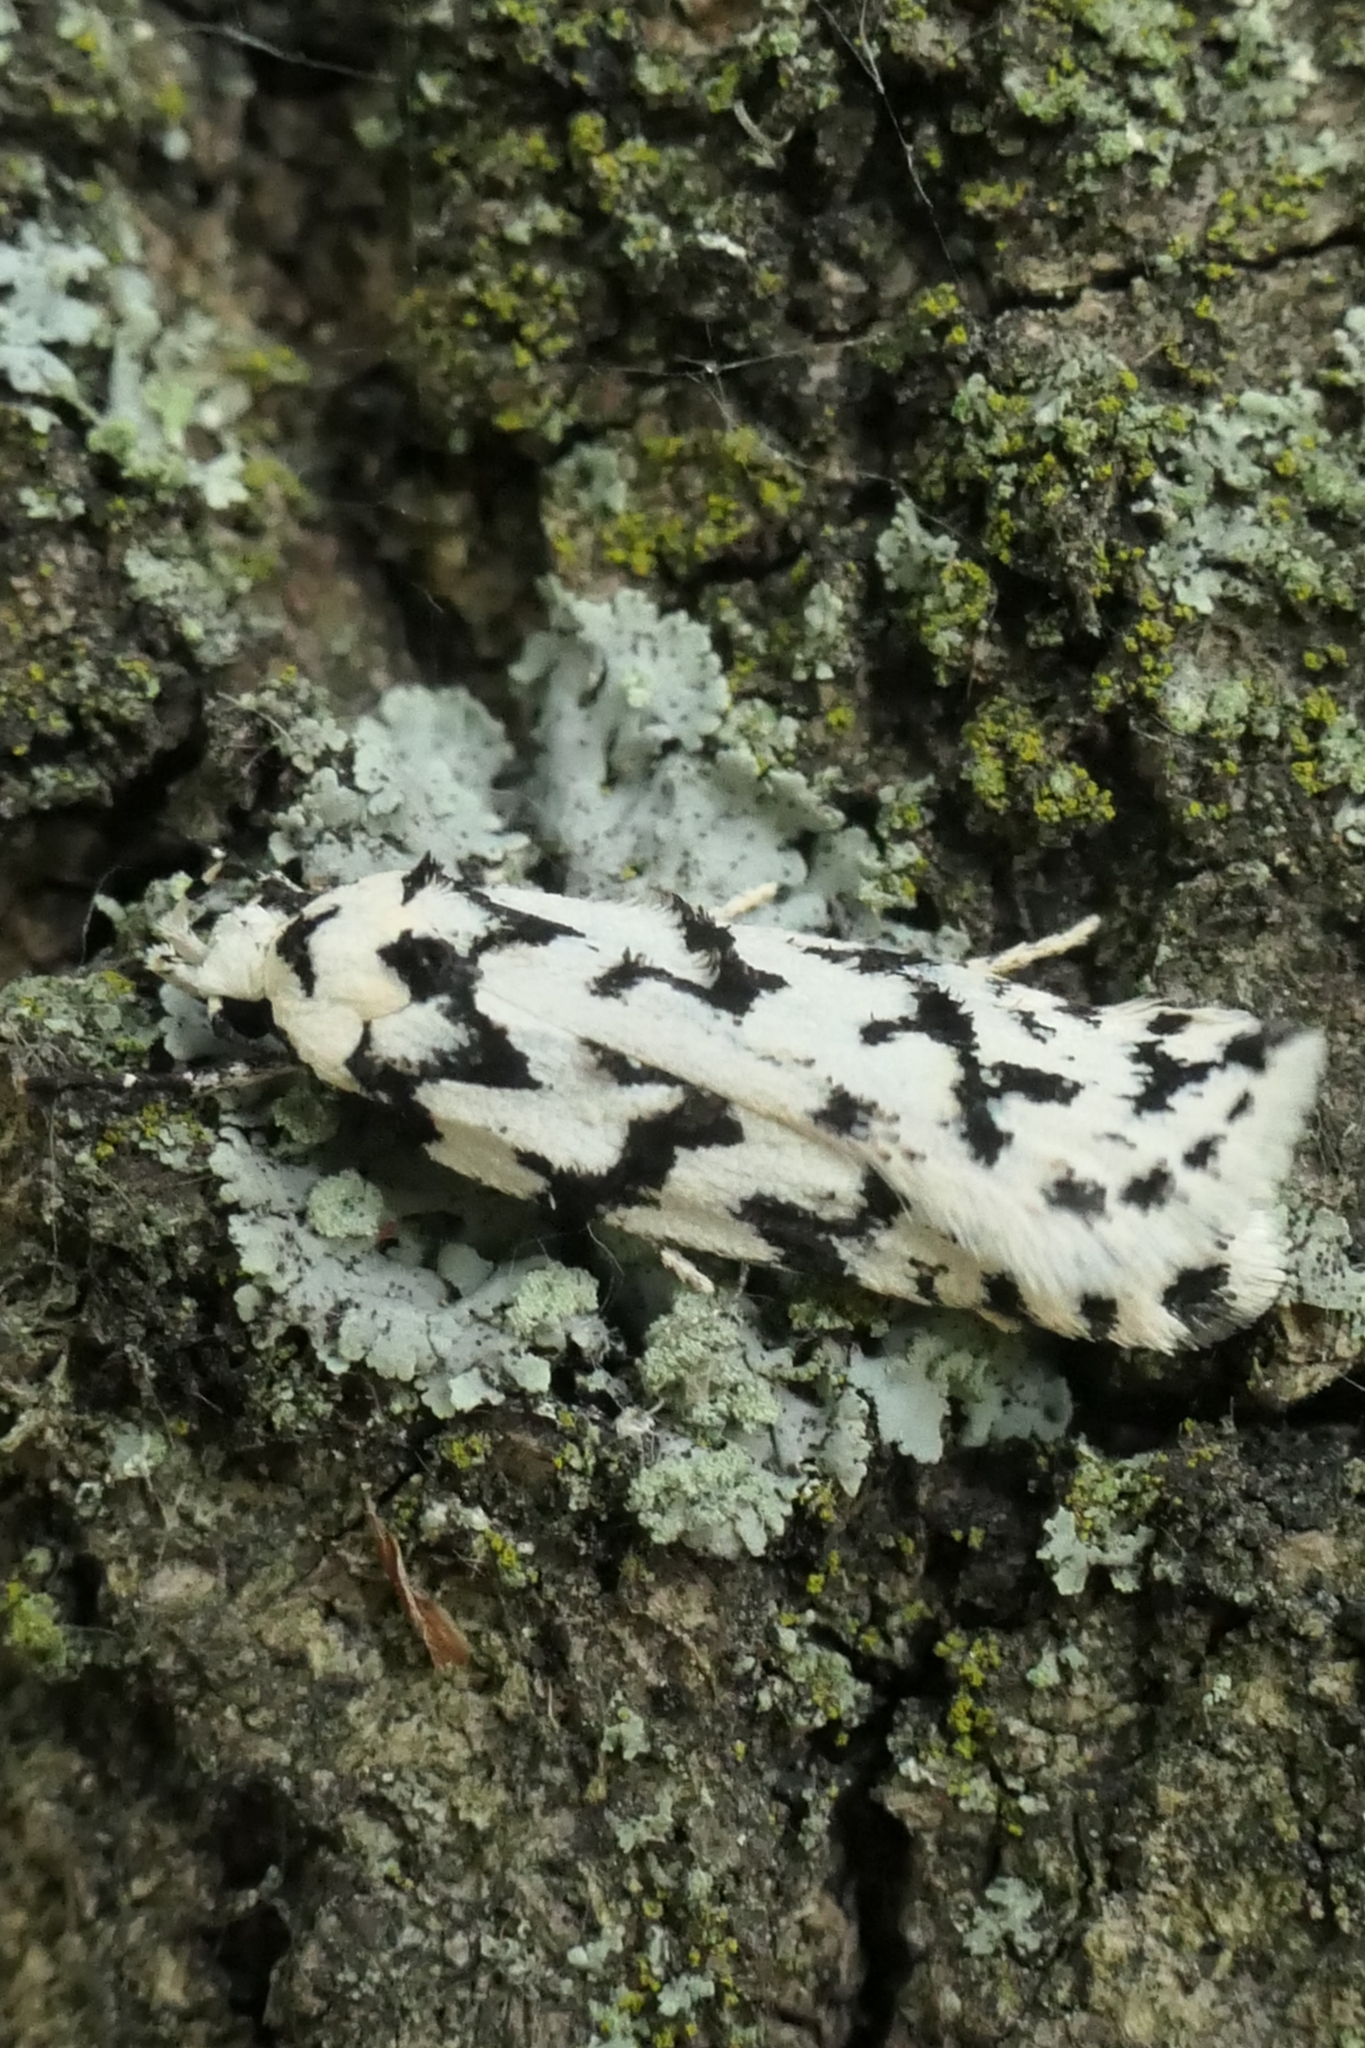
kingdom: Animalia
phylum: Arthropoda
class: Insecta
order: Lepidoptera
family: Oecophoridae
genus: Izatha
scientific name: Izatha katadiktya
